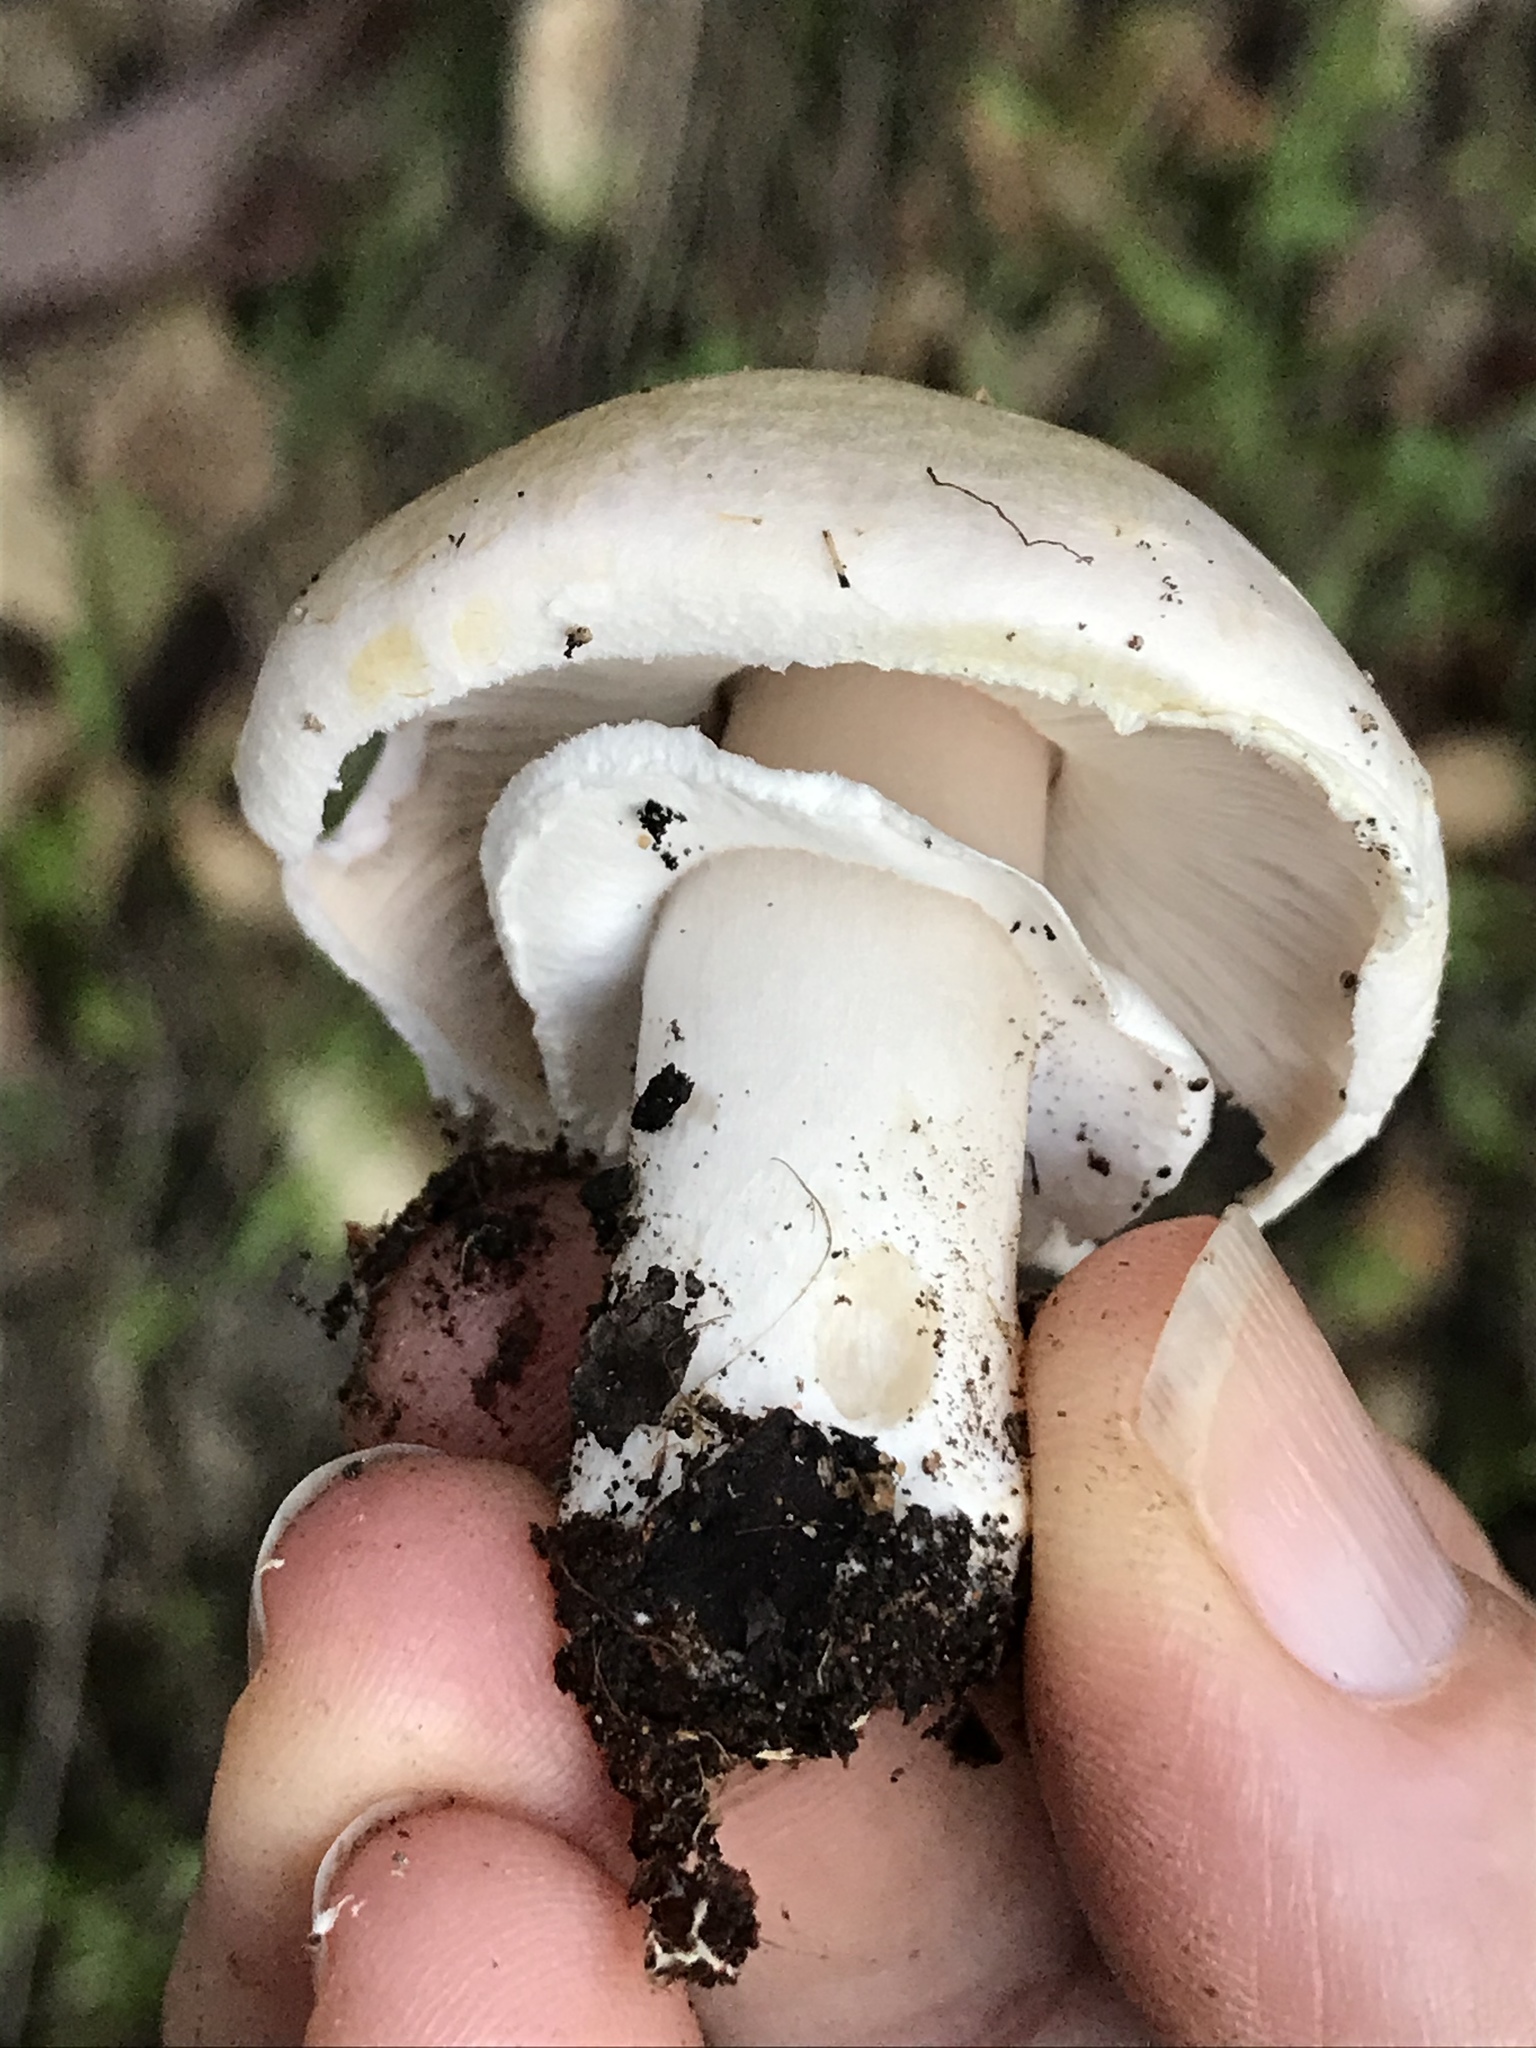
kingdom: Fungi
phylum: Basidiomycota
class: Agaricomycetes
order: Agaricales
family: Agaricaceae
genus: Agaricus
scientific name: Agaricus xanthodermus
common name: Yellow stainer
